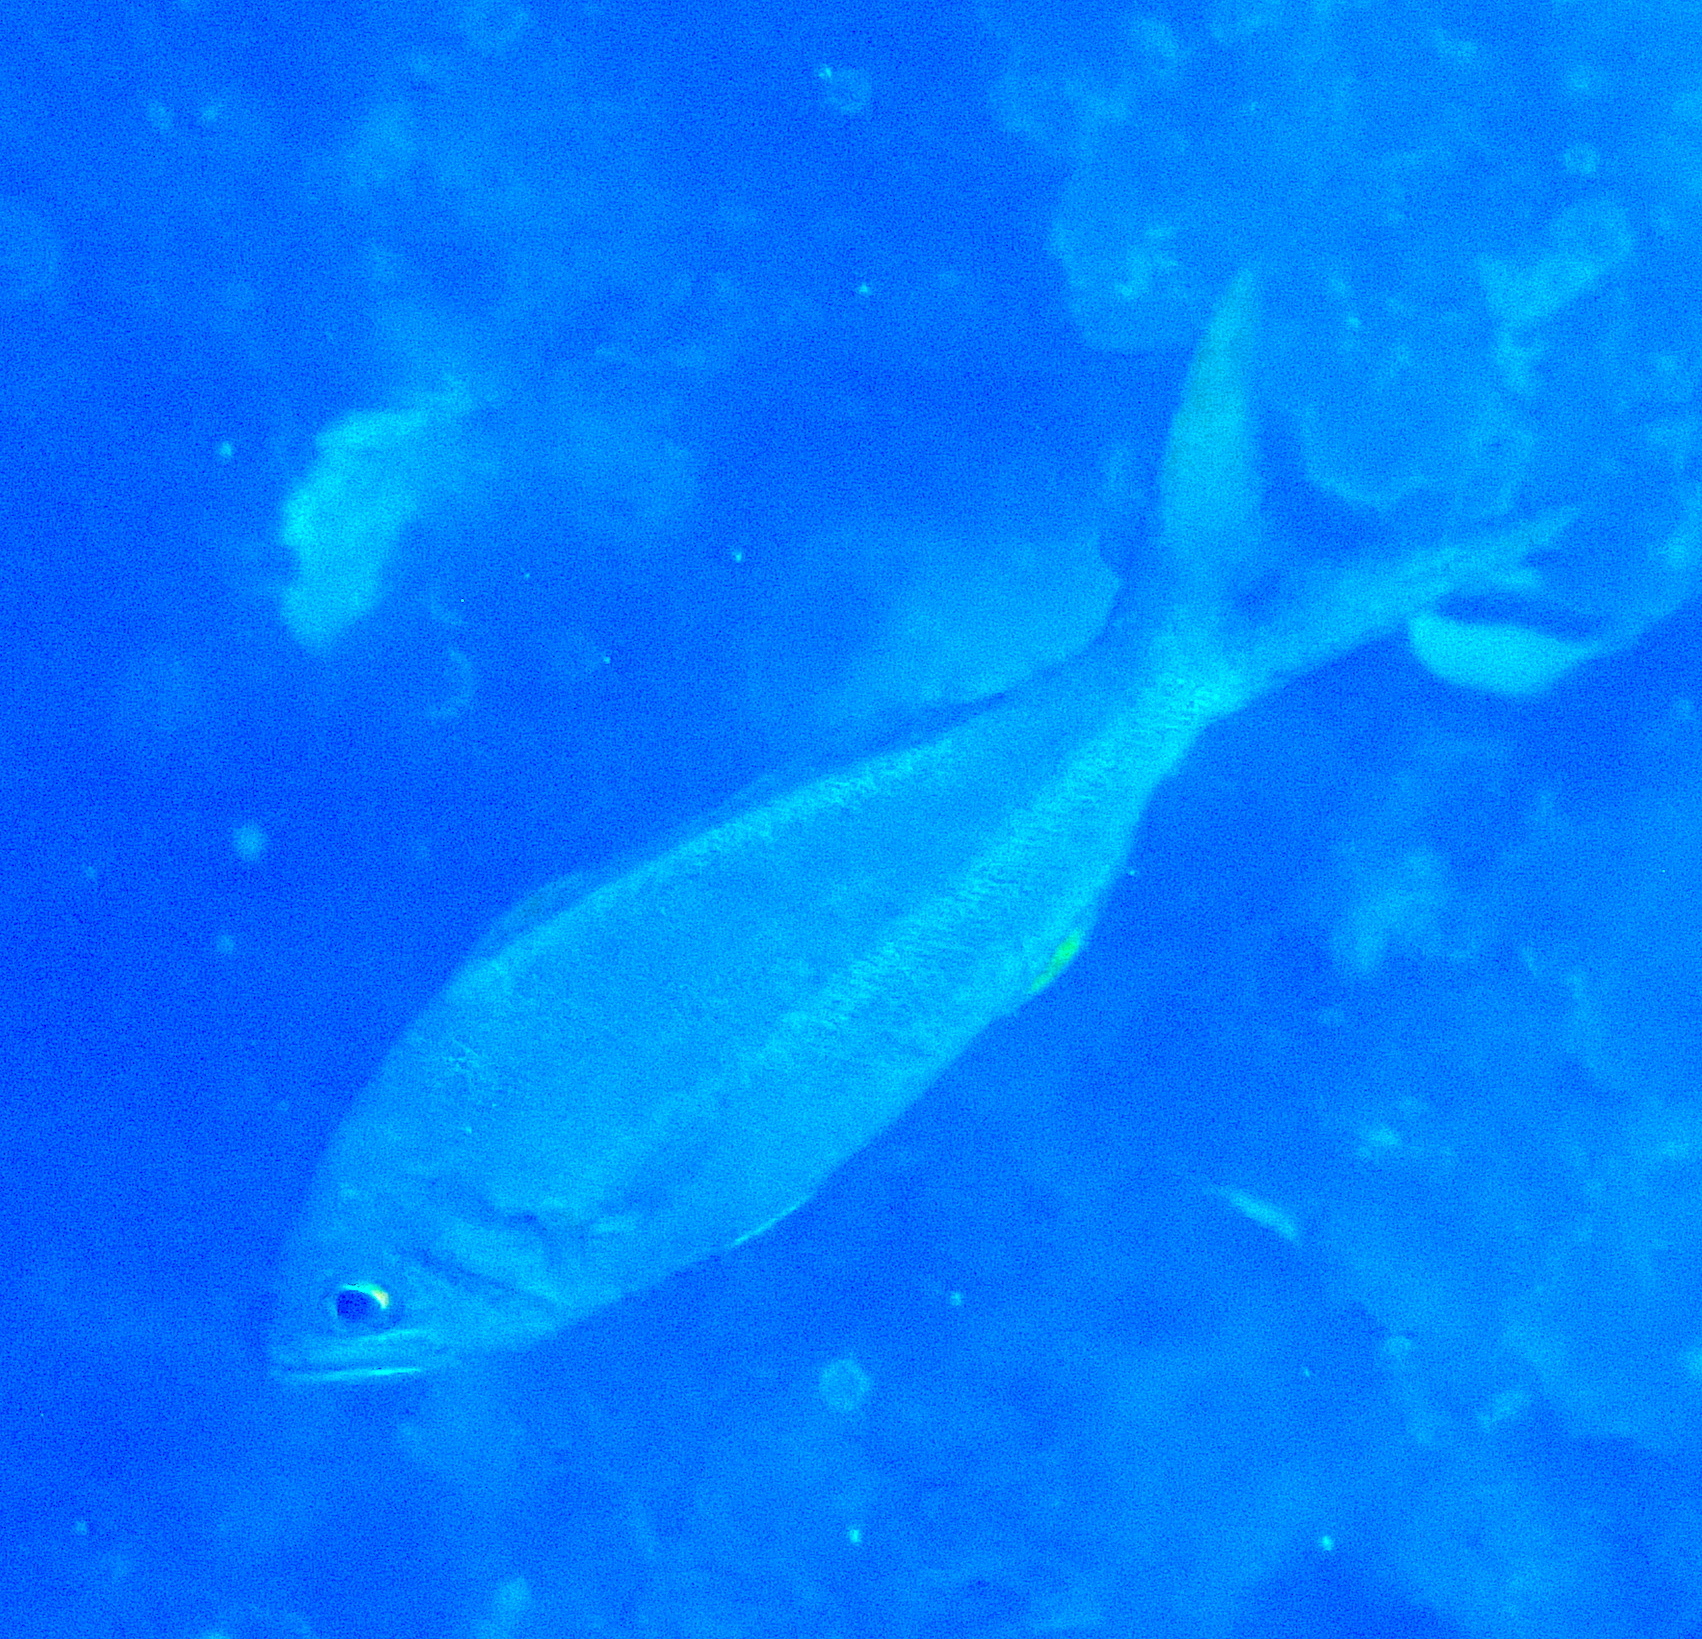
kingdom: Animalia
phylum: Chordata
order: Perciformes
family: Lutjanidae
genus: Aphareus
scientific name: Aphareus furca
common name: Smalltooth jobfish
